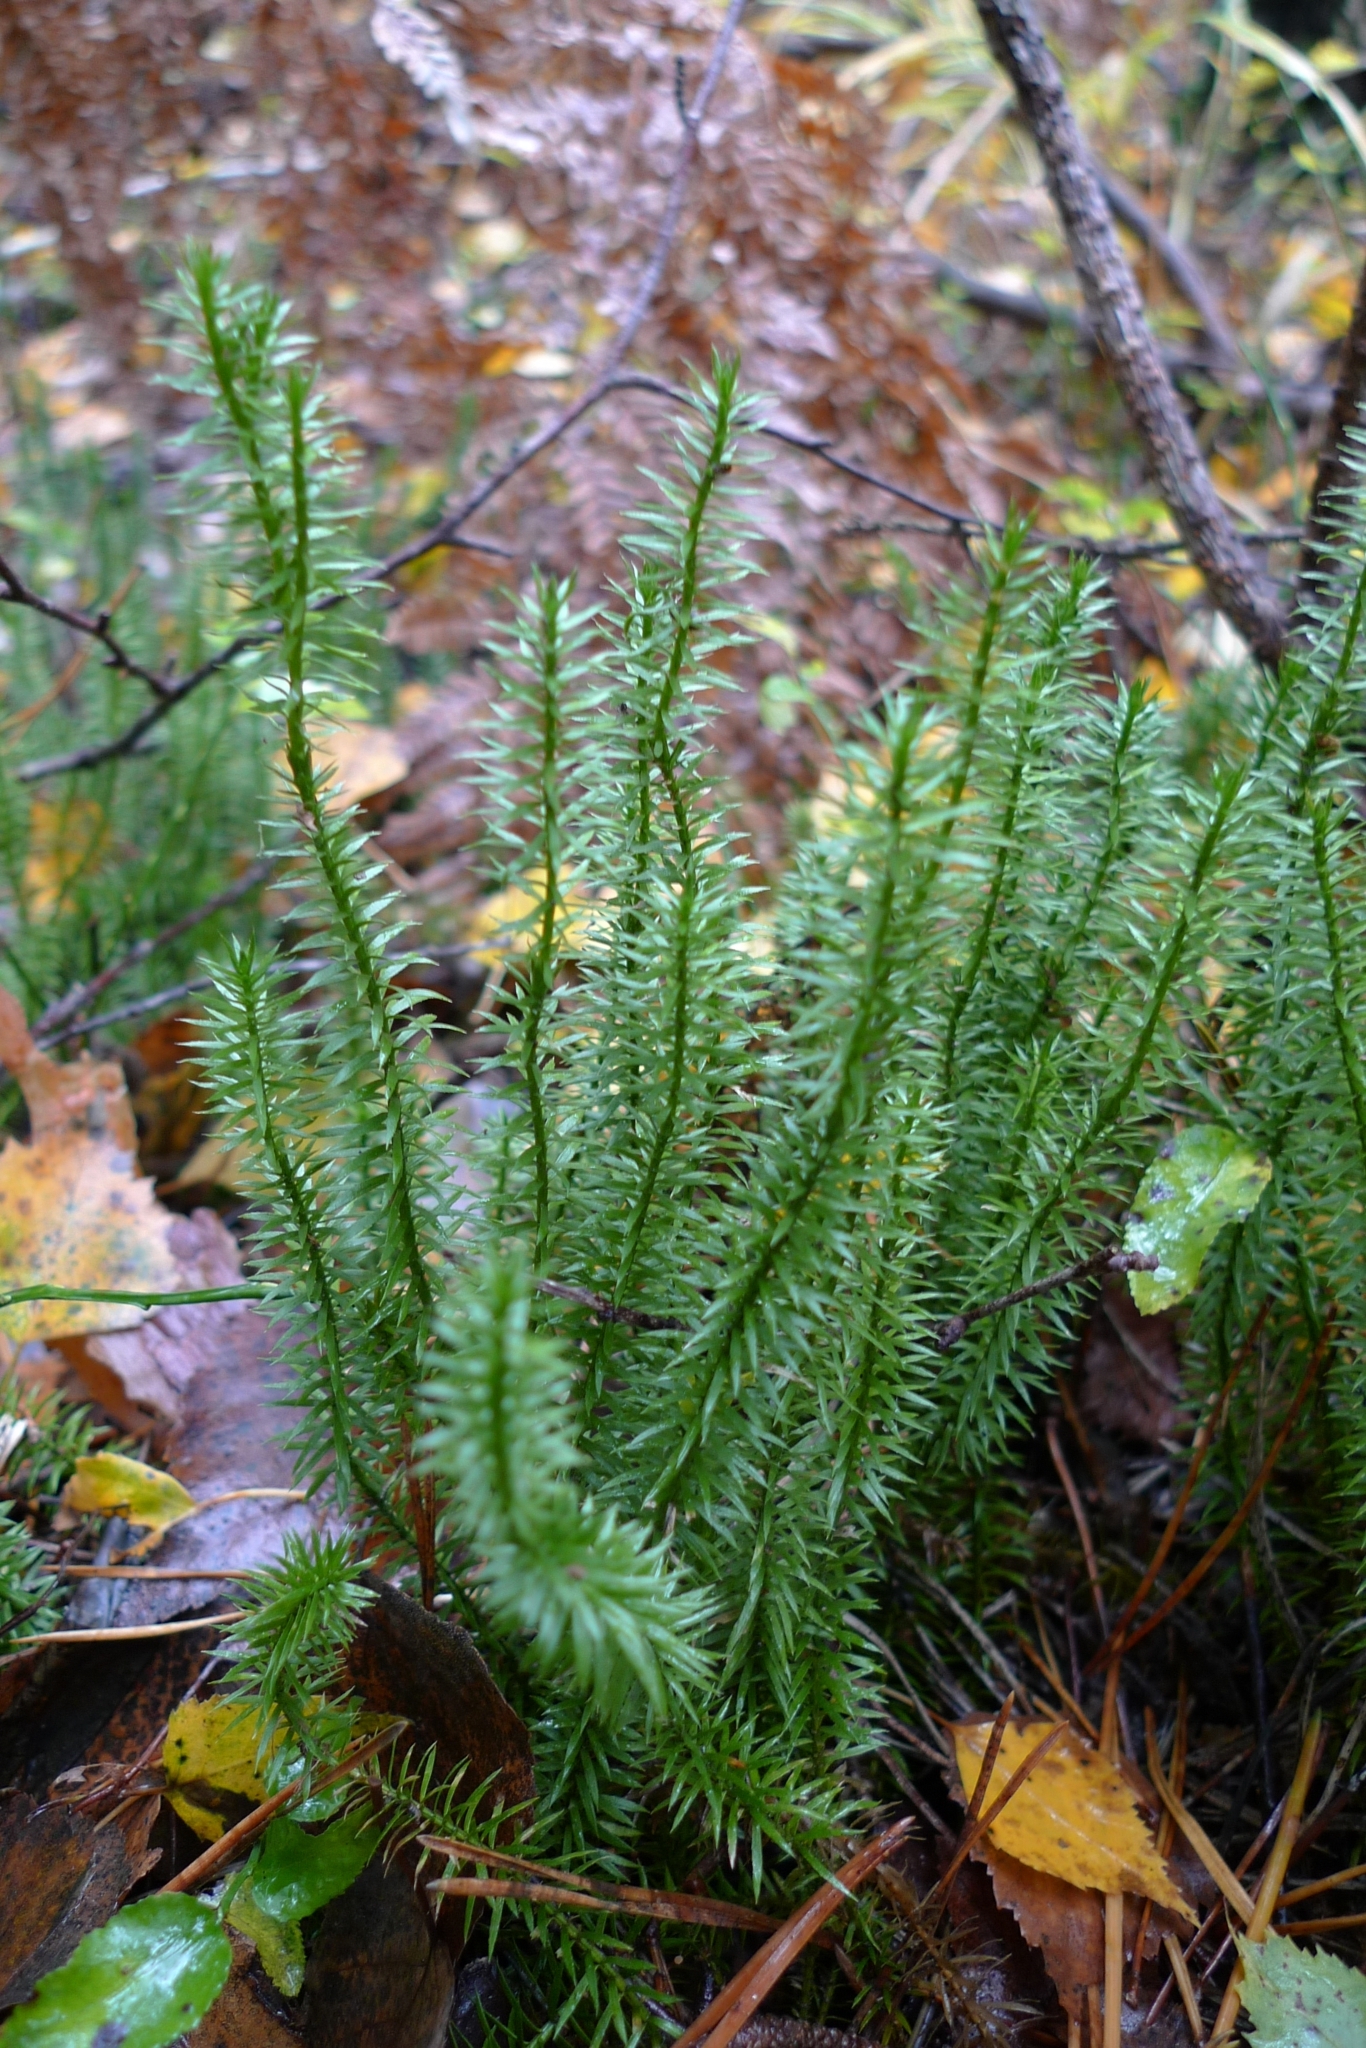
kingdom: Plantae
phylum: Tracheophyta
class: Lycopodiopsida
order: Lycopodiales
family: Lycopodiaceae
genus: Spinulum
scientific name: Spinulum annotinum
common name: Interrupted club-moss
